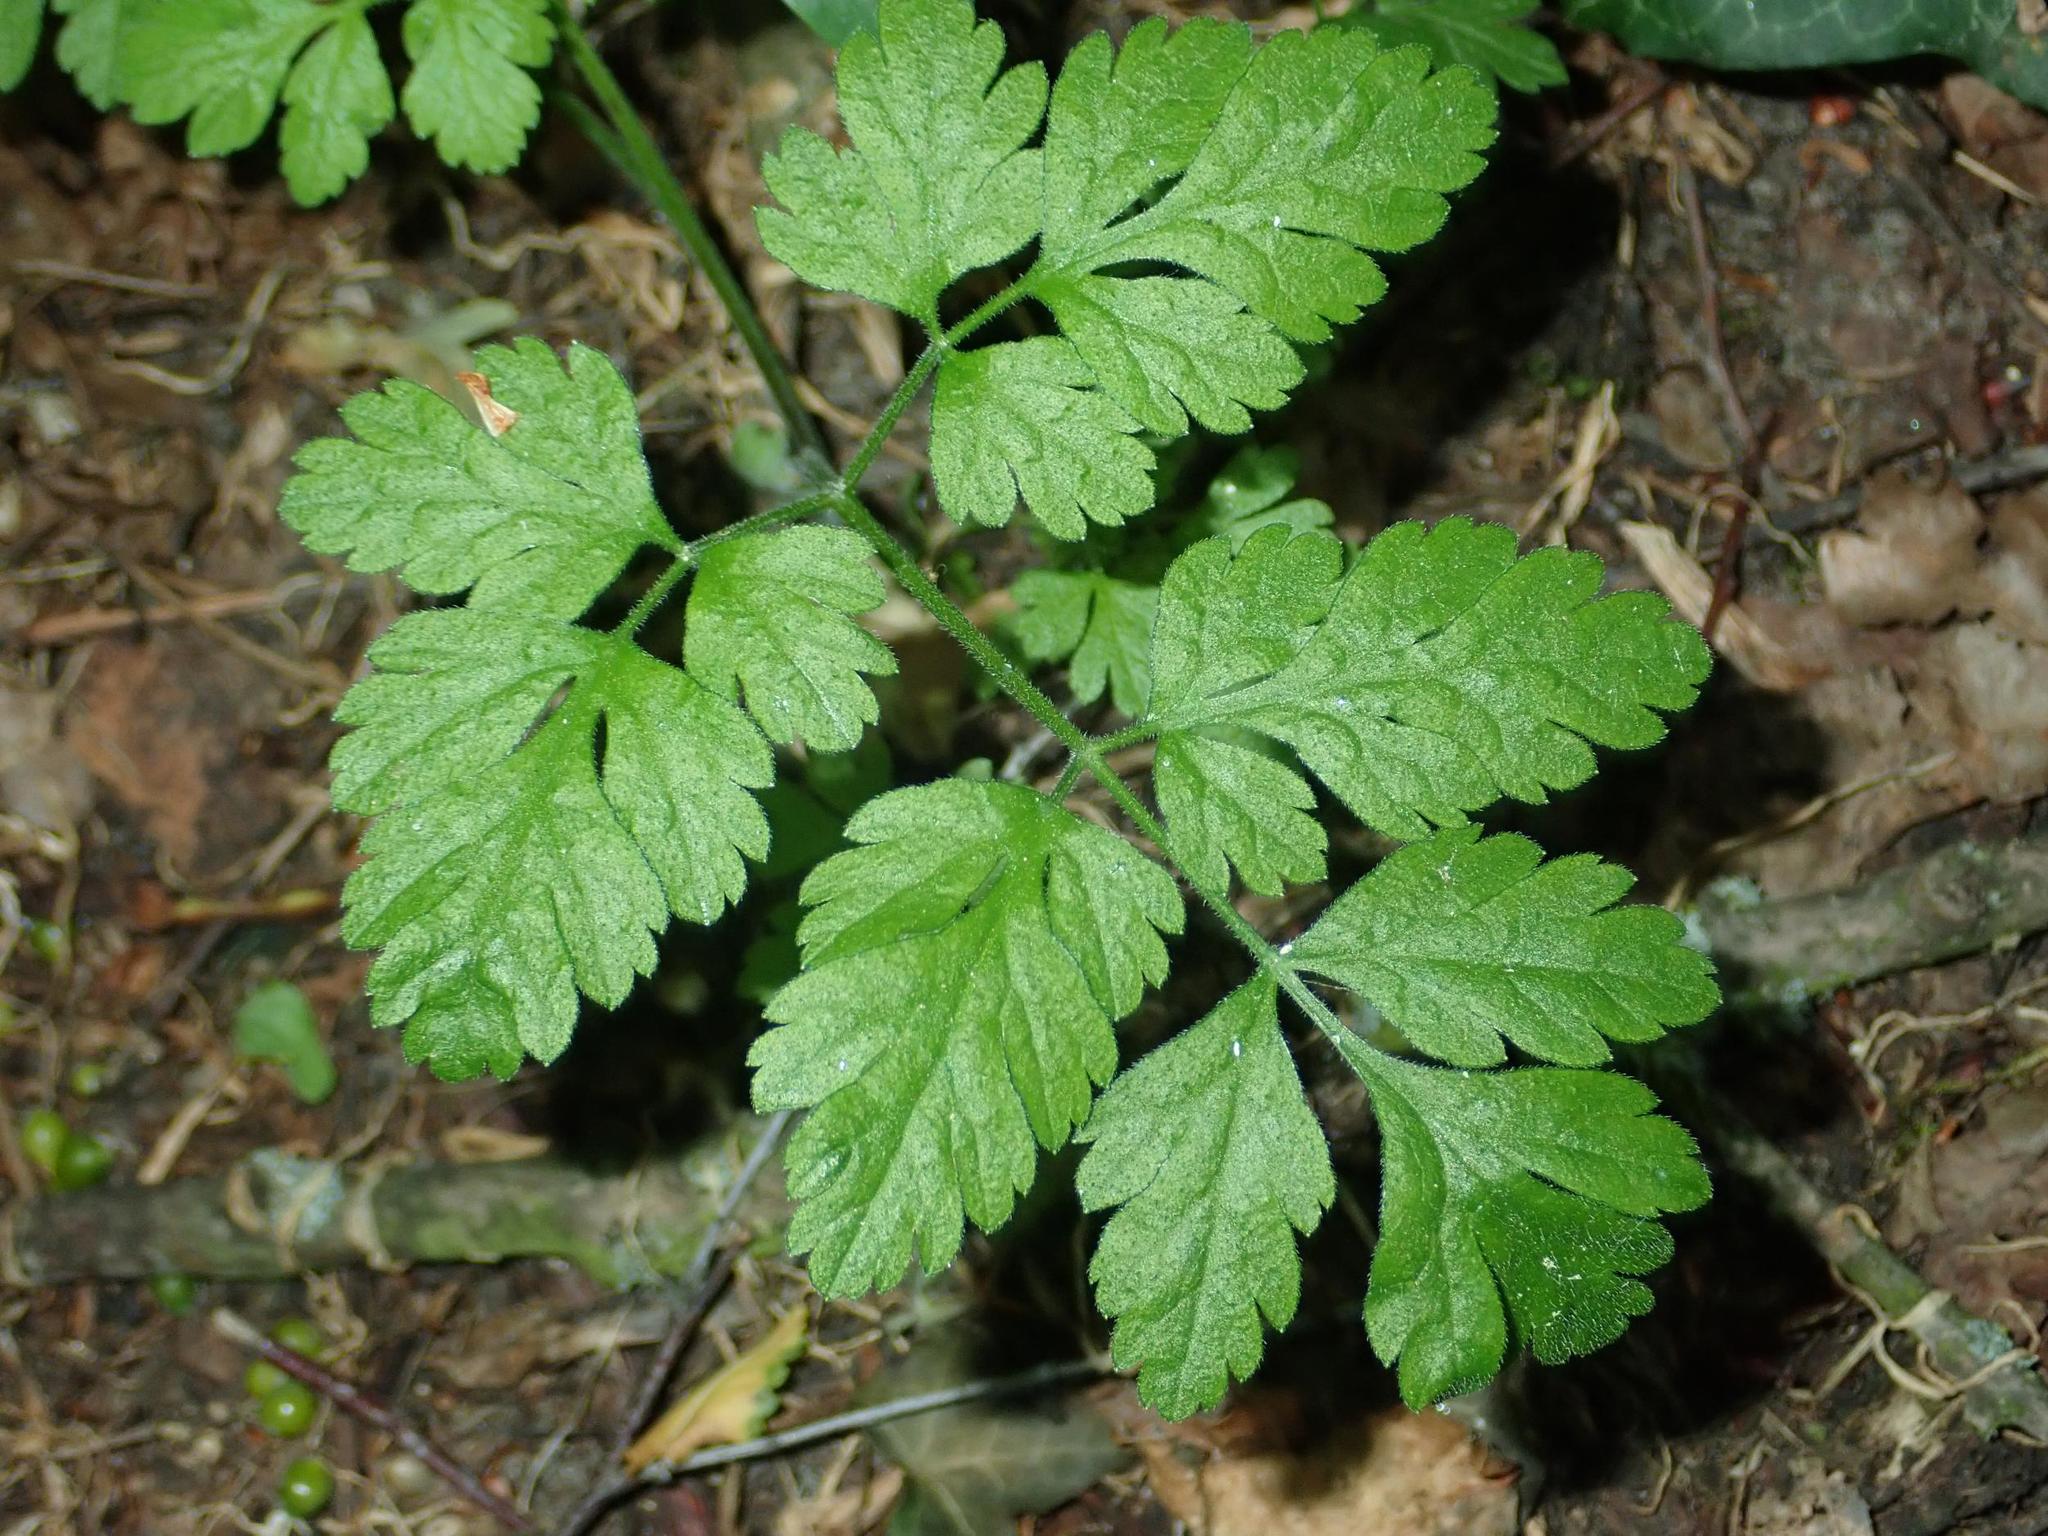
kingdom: Plantae
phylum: Tracheophyta
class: Magnoliopsida
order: Apiales
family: Apiaceae
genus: Chaerophyllum
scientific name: Chaerophyllum temulum
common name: Rough chervil
